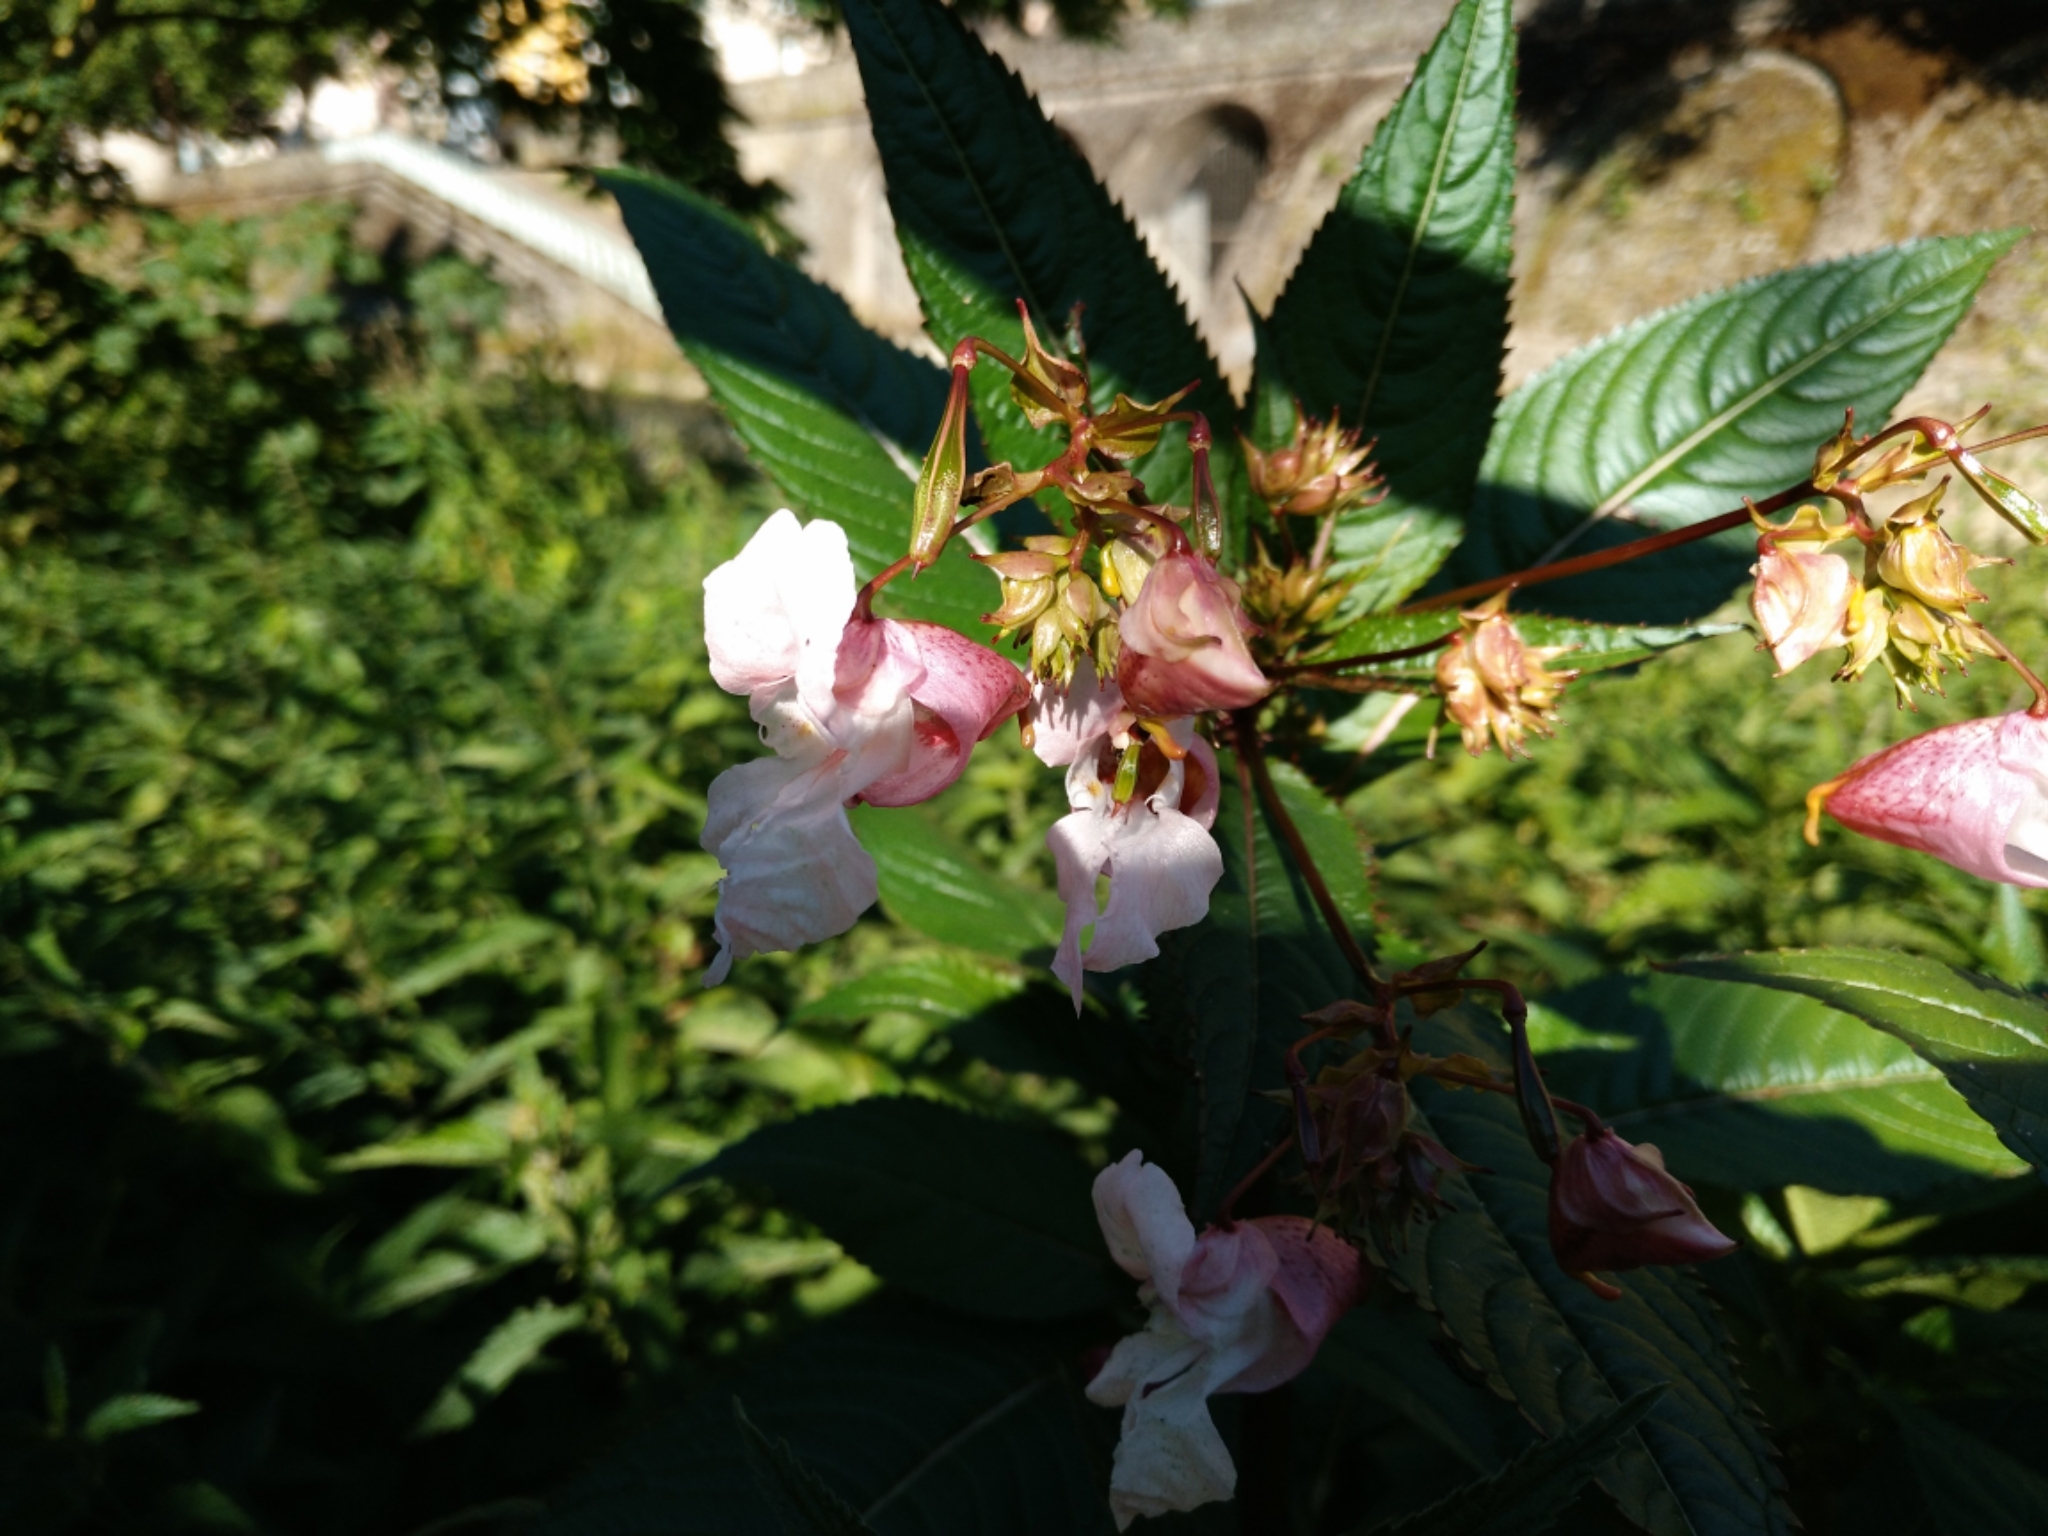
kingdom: Plantae
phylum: Tracheophyta
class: Magnoliopsida
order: Ericales
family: Balsaminaceae
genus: Impatiens
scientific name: Impatiens glandulifera
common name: Himalayan balsam
